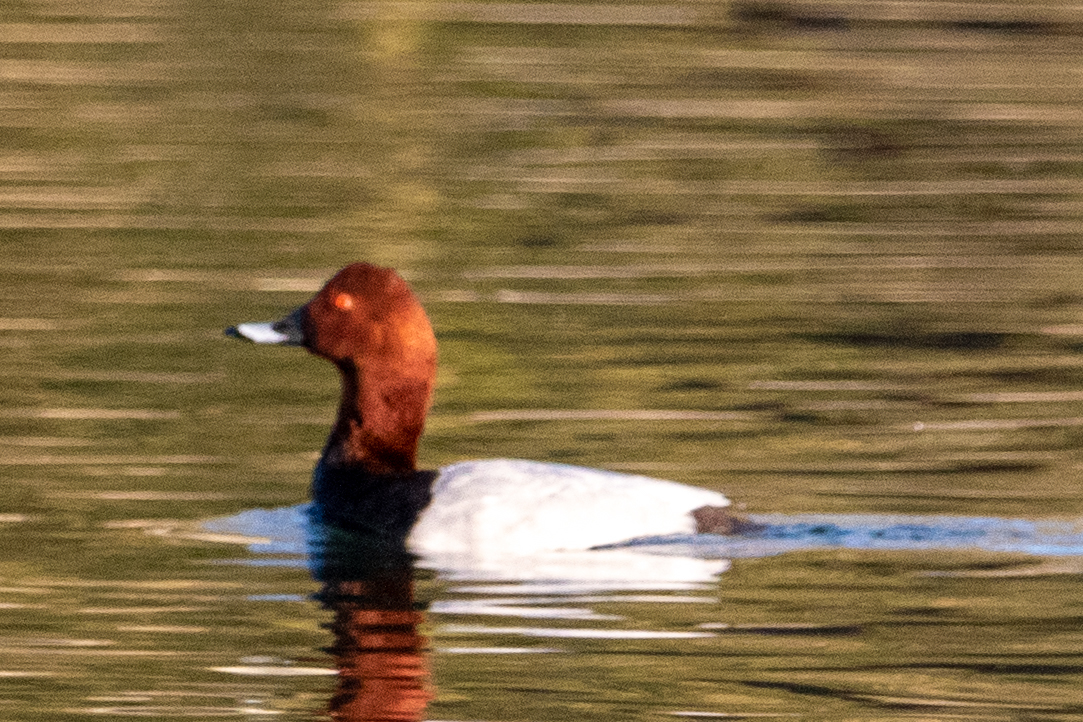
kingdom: Animalia
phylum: Chordata
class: Aves
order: Anseriformes
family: Anatidae
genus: Aythya
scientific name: Aythya ferina
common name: Common pochard
